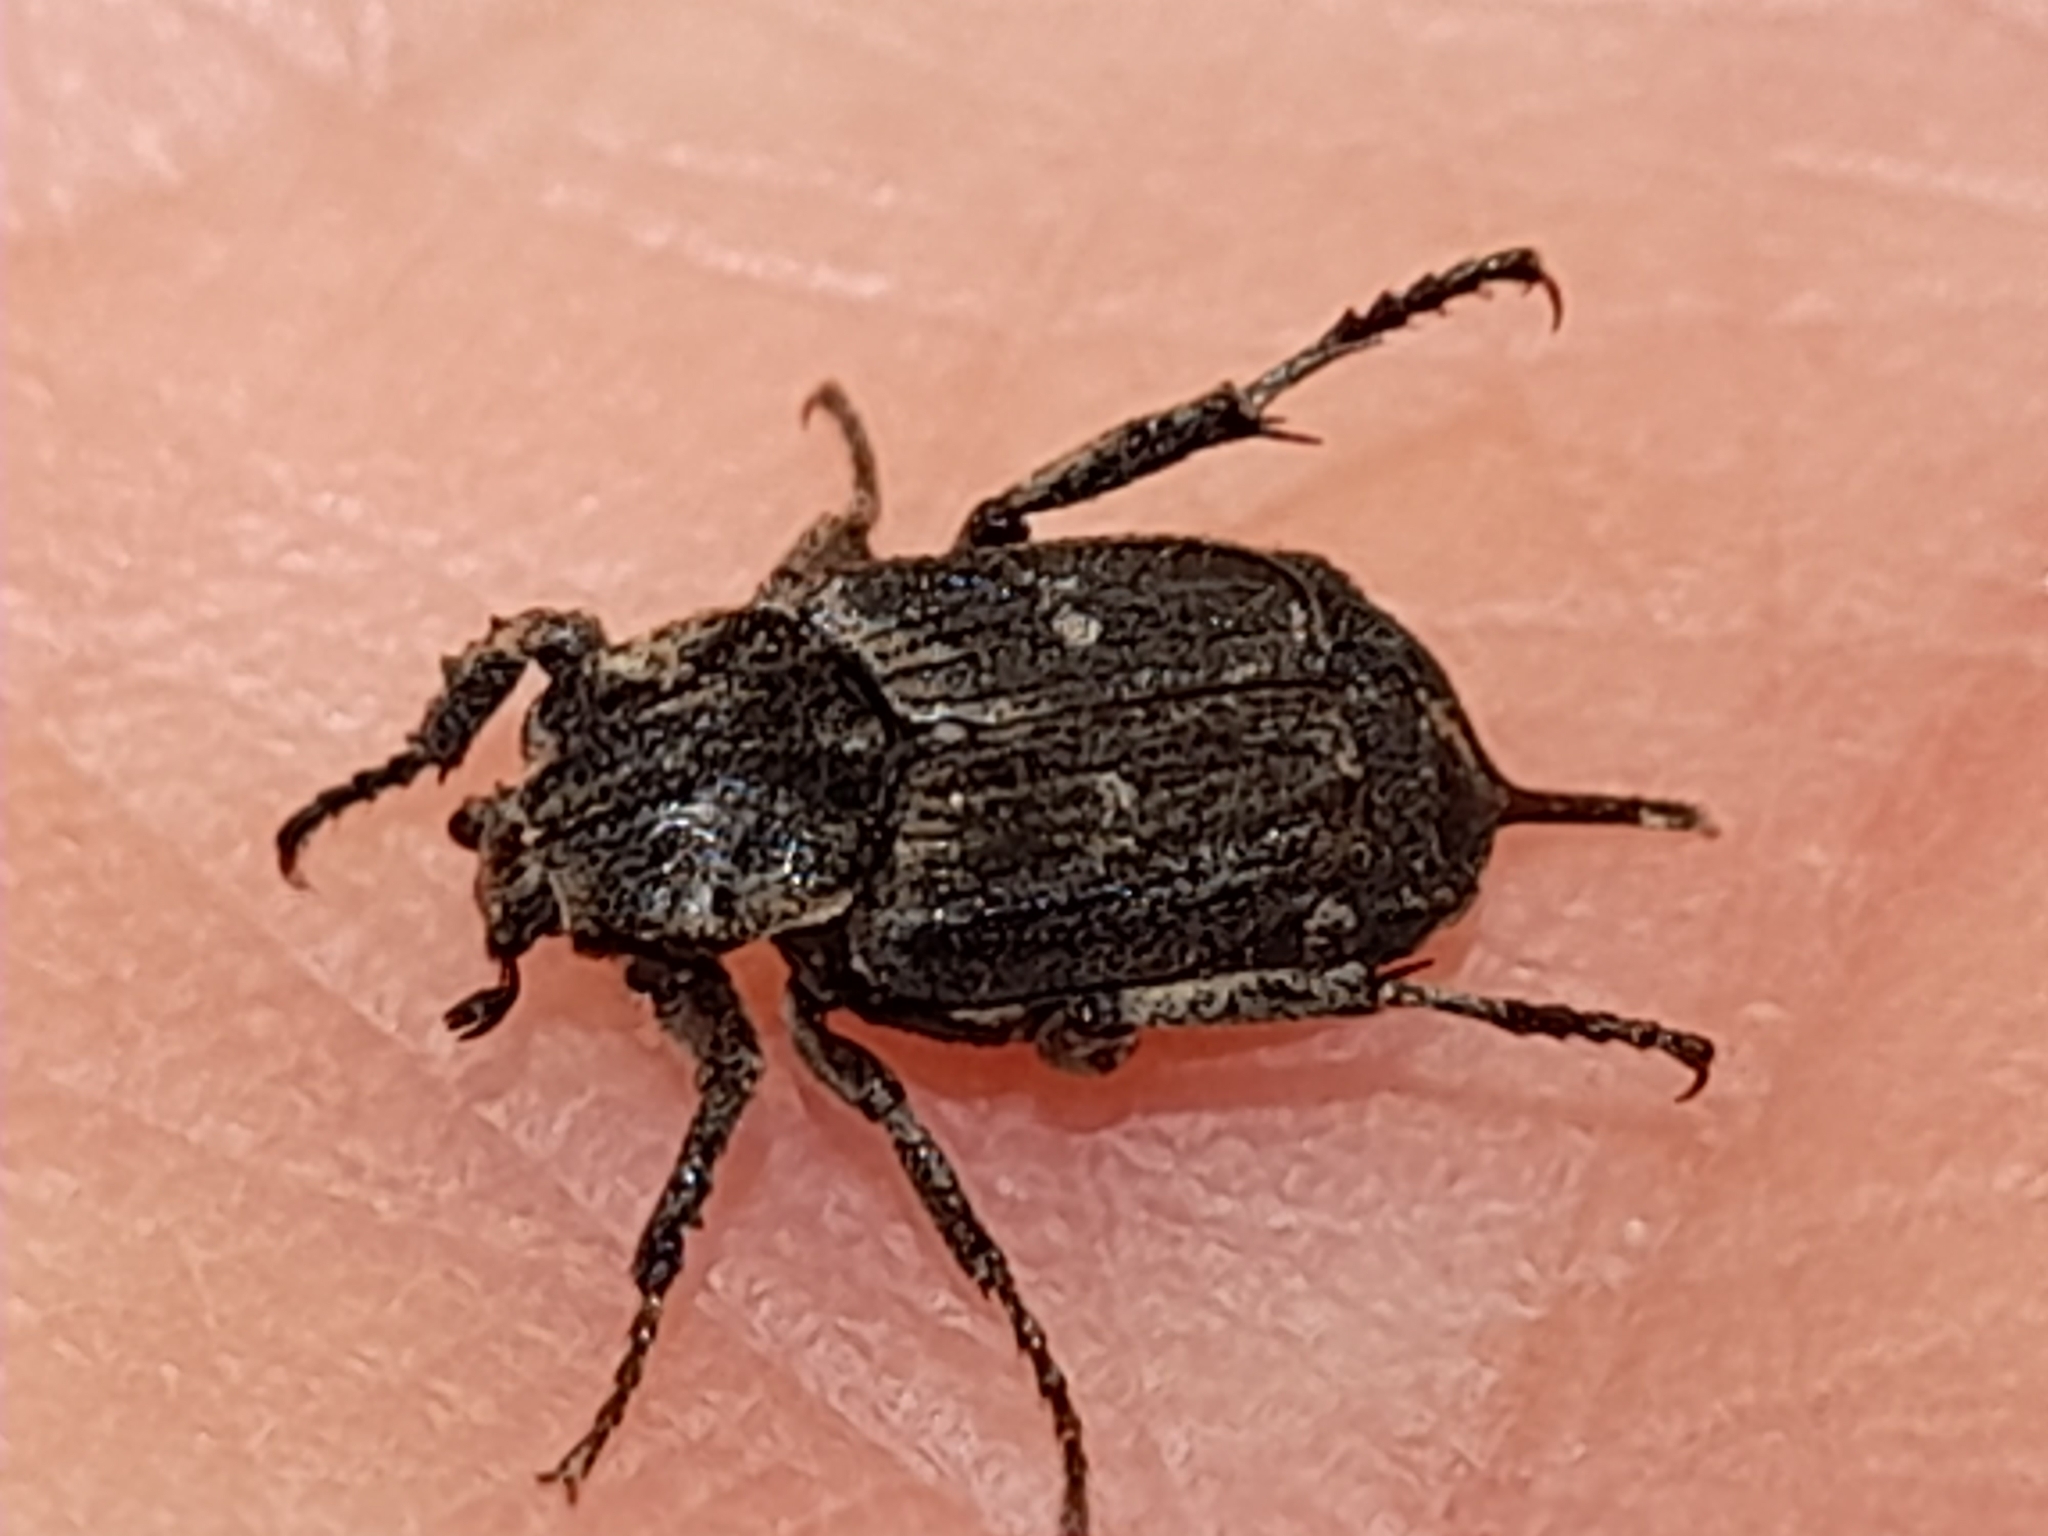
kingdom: Animalia
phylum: Arthropoda
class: Insecta
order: Coleoptera
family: Scarabaeidae
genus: Valgus
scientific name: Valgus hemipterus
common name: Bug flower chafer
